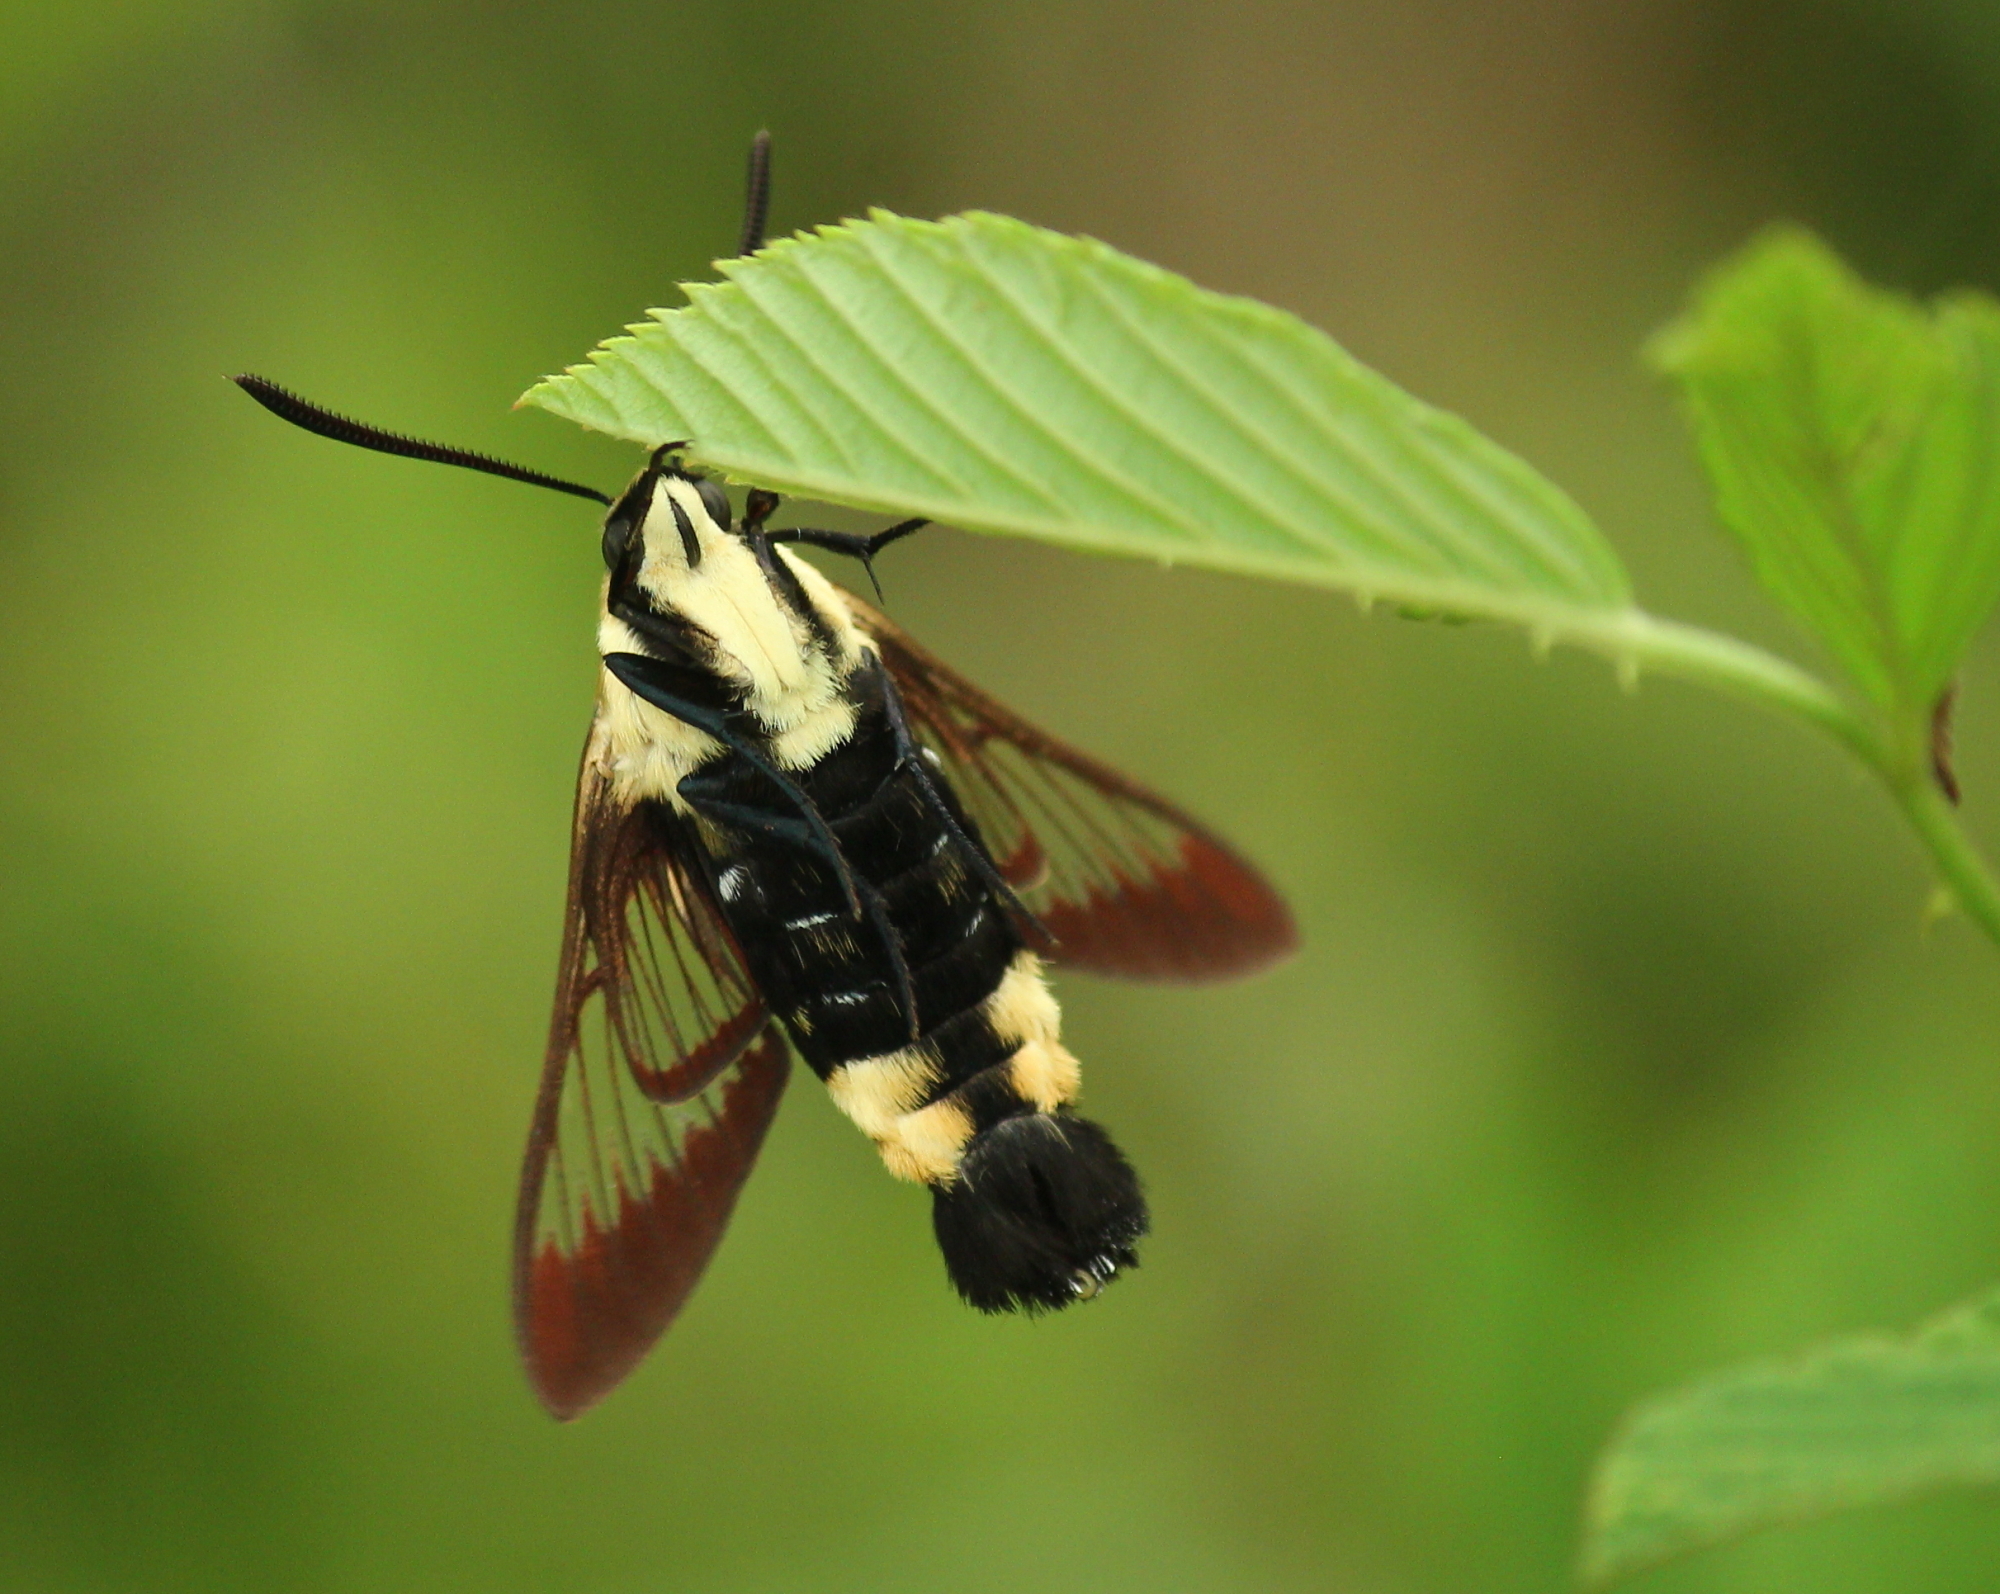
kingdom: Animalia
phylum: Arthropoda
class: Insecta
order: Lepidoptera
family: Sphingidae
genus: Hemaris
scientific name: Hemaris diffinis
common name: Bumblebee moth
